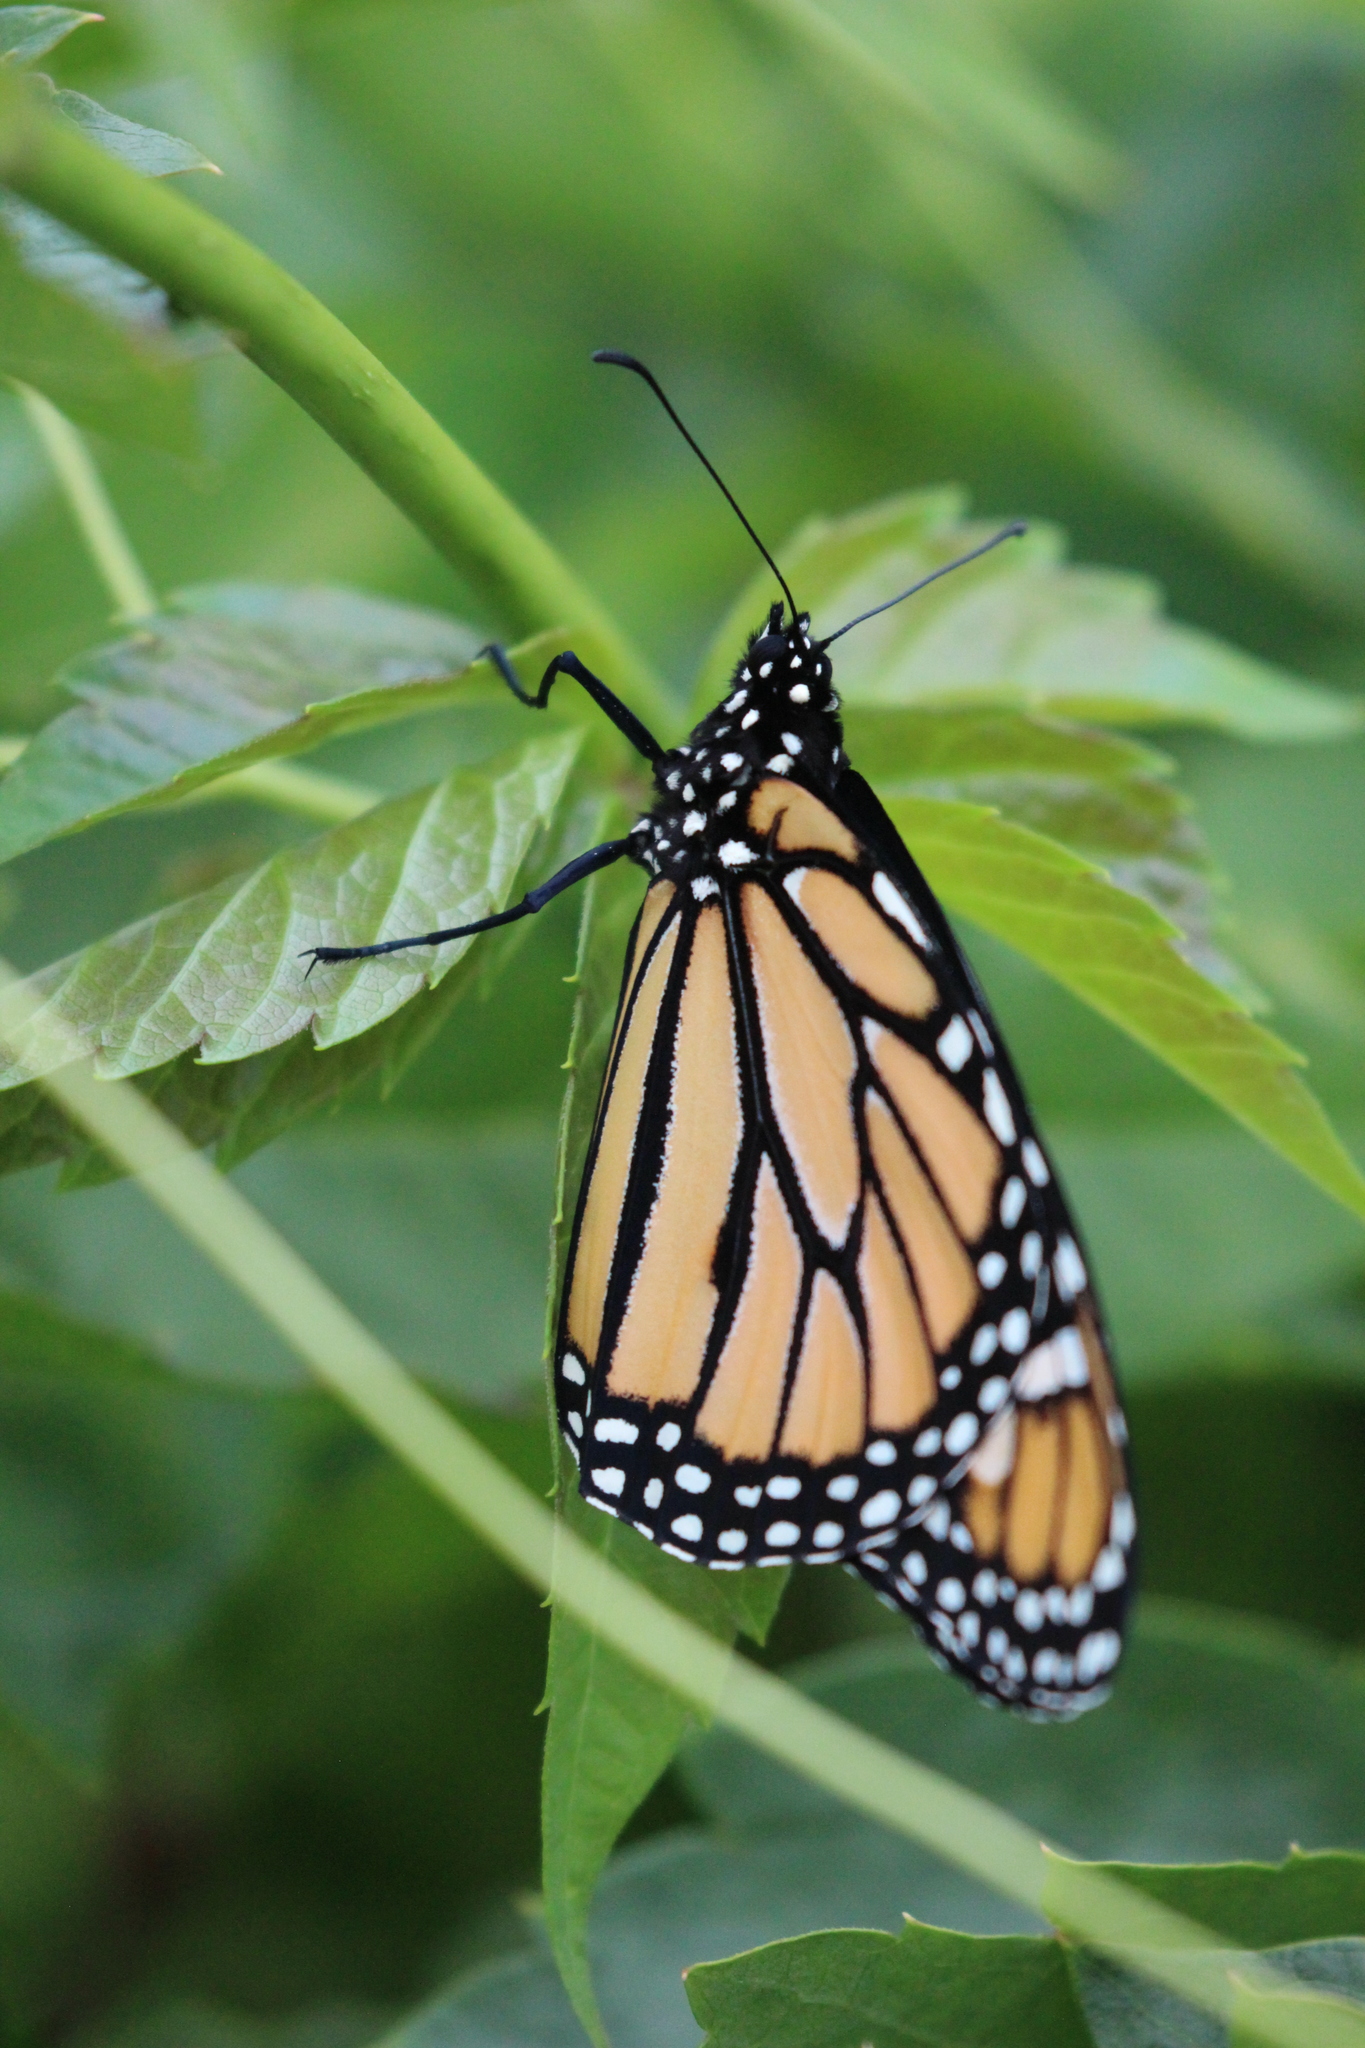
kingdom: Animalia
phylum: Arthropoda
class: Insecta
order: Lepidoptera
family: Nymphalidae
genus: Danaus
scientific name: Danaus plexippus
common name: Monarch
